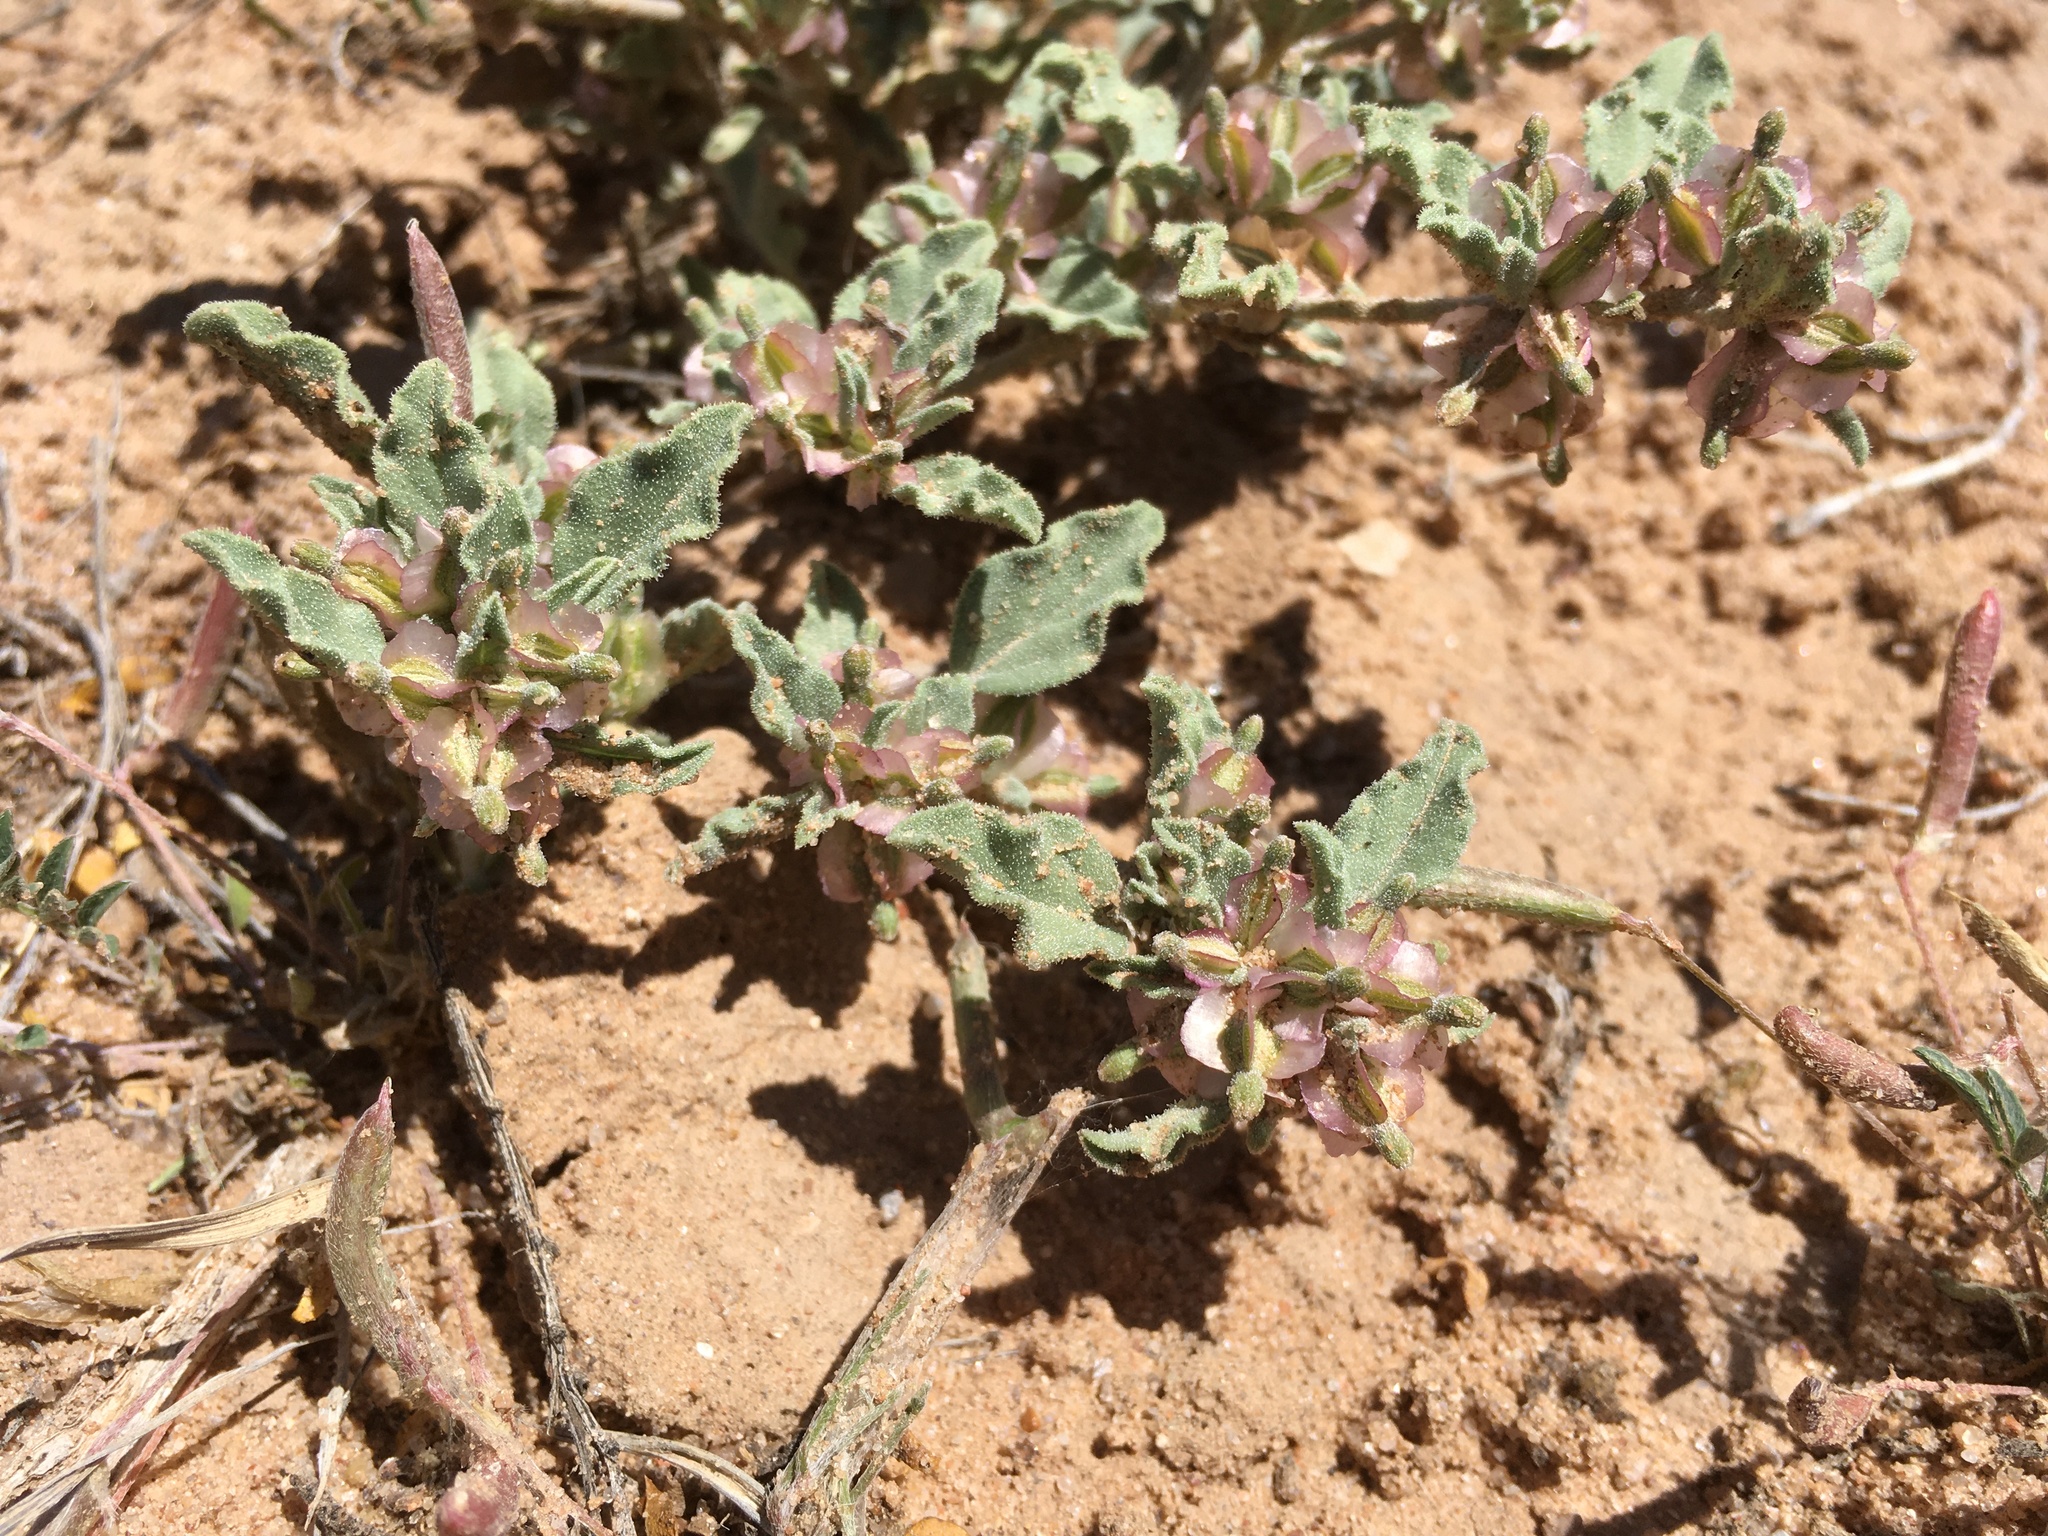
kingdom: Plantae
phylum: Tracheophyta
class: Magnoliopsida
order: Caryophyllales
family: Nyctaginaceae
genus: Acleisanthes
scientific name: Acleisanthes diffusa
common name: Spreading moonpod
